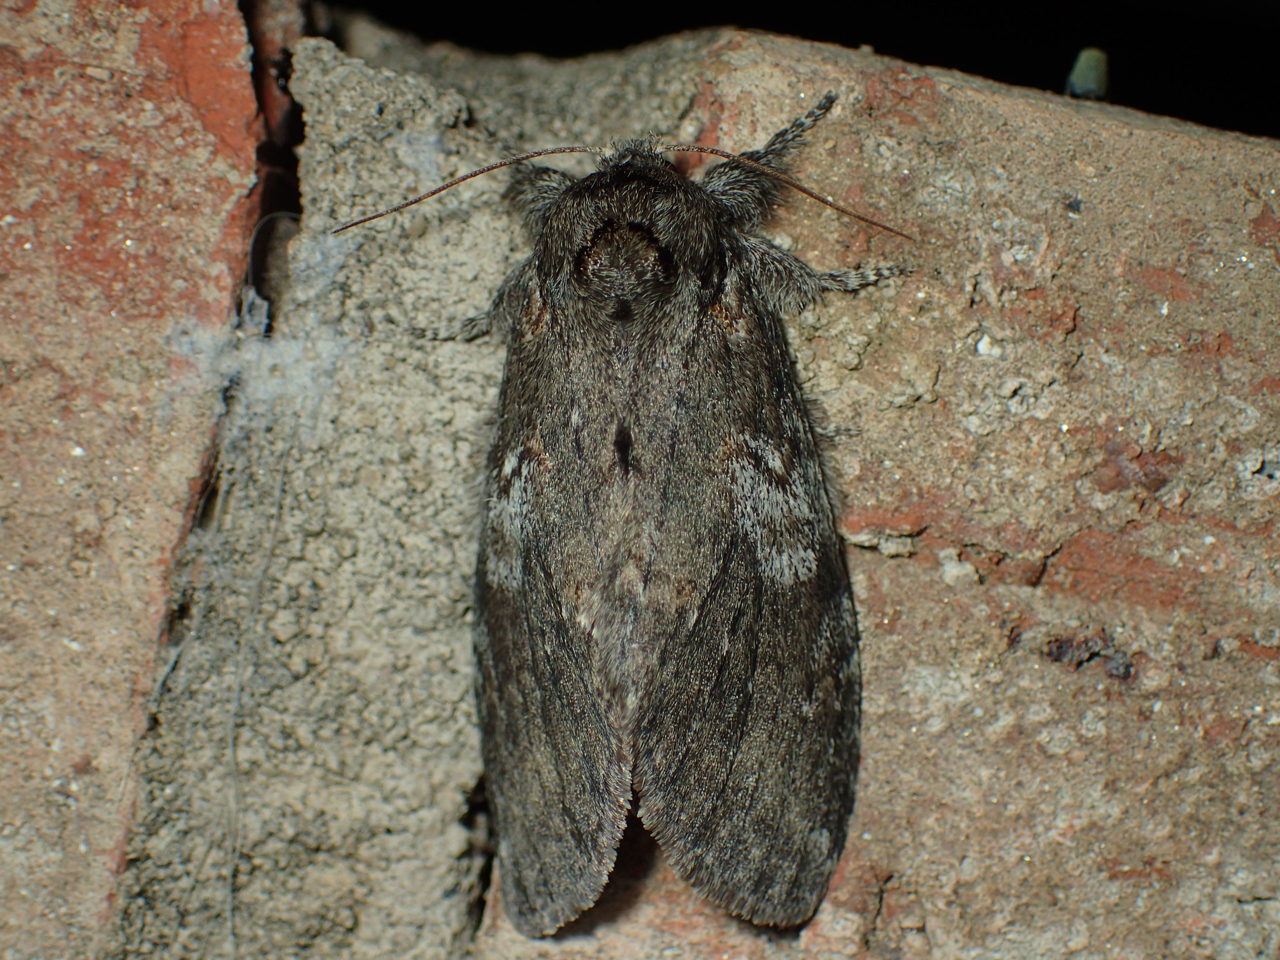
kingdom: Animalia
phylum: Arthropoda
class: Insecta
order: Lepidoptera
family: Notodontidae
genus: Peridea
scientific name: Peridea angulosa
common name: Angulose prominent
